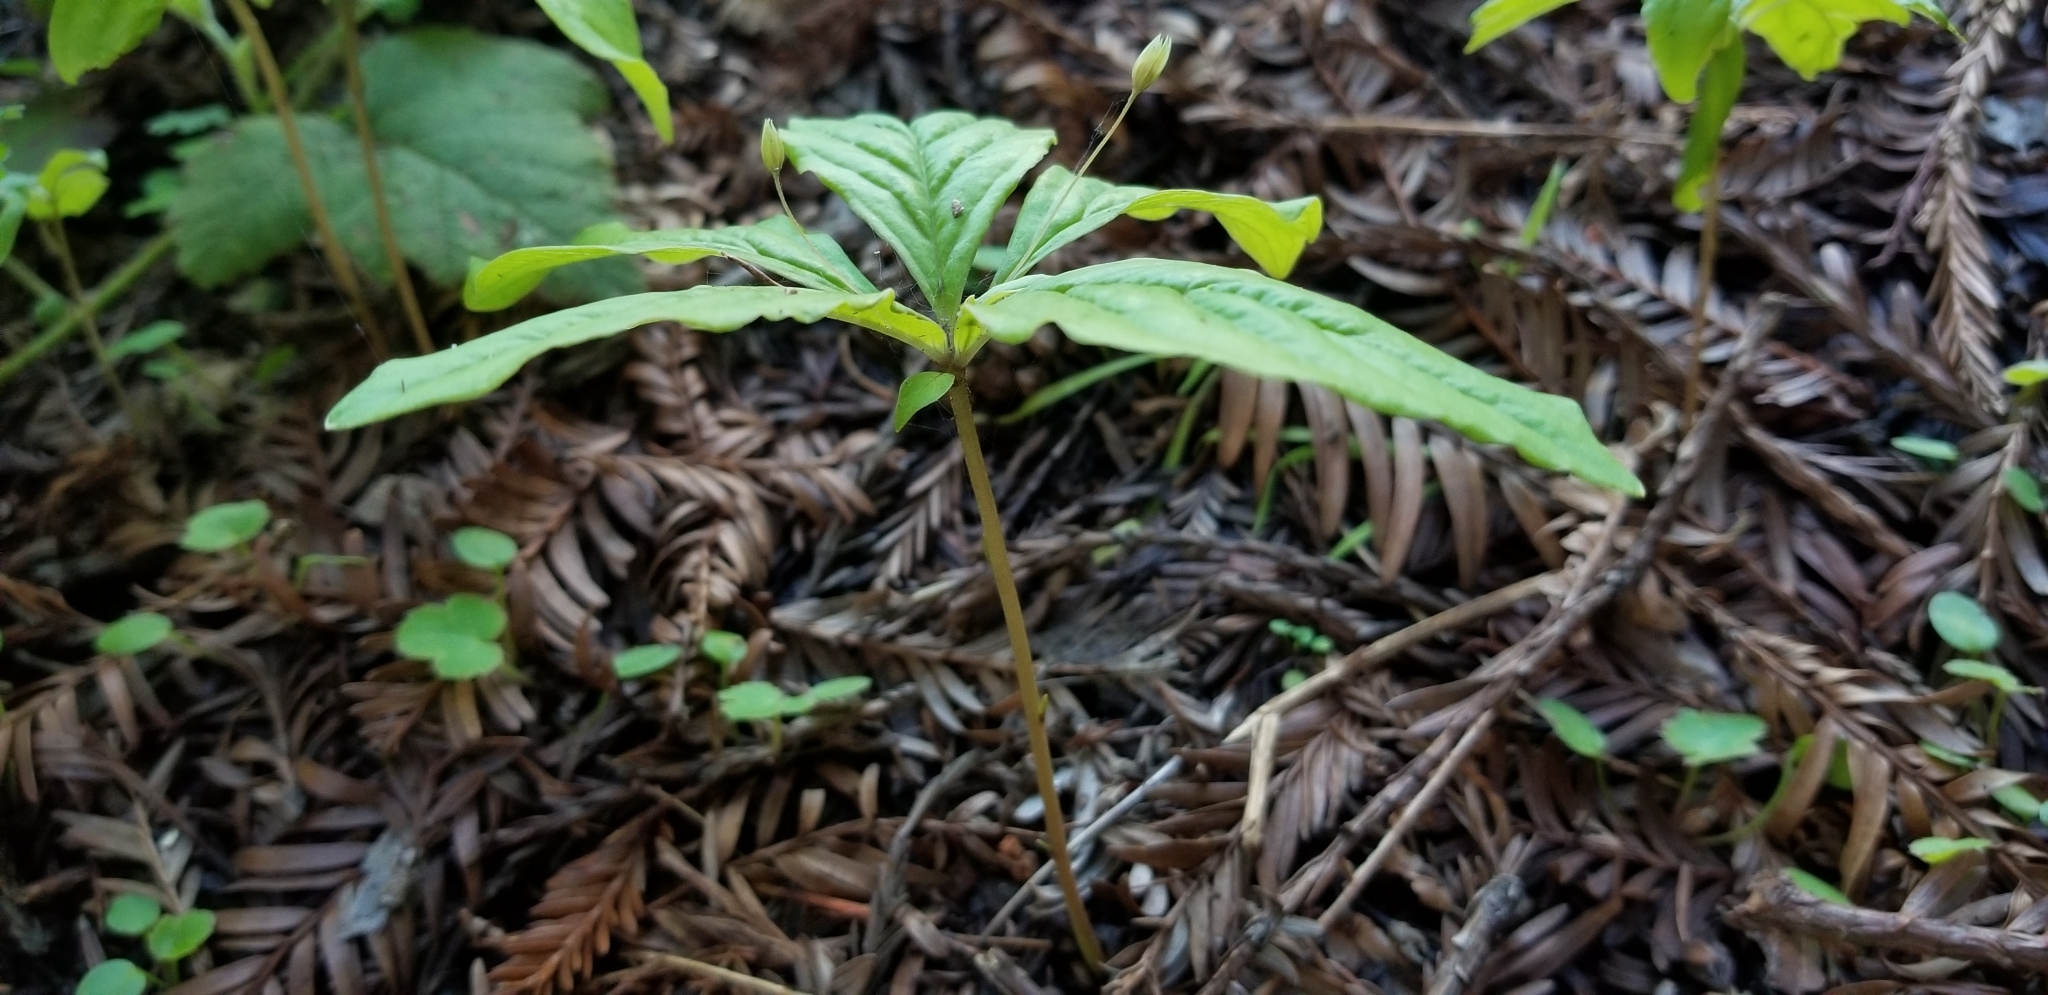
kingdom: Plantae
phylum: Tracheophyta
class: Magnoliopsida
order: Ericales
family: Primulaceae
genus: Lysimachia
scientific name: Lysimachia latifolia
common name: Pacific starflower
